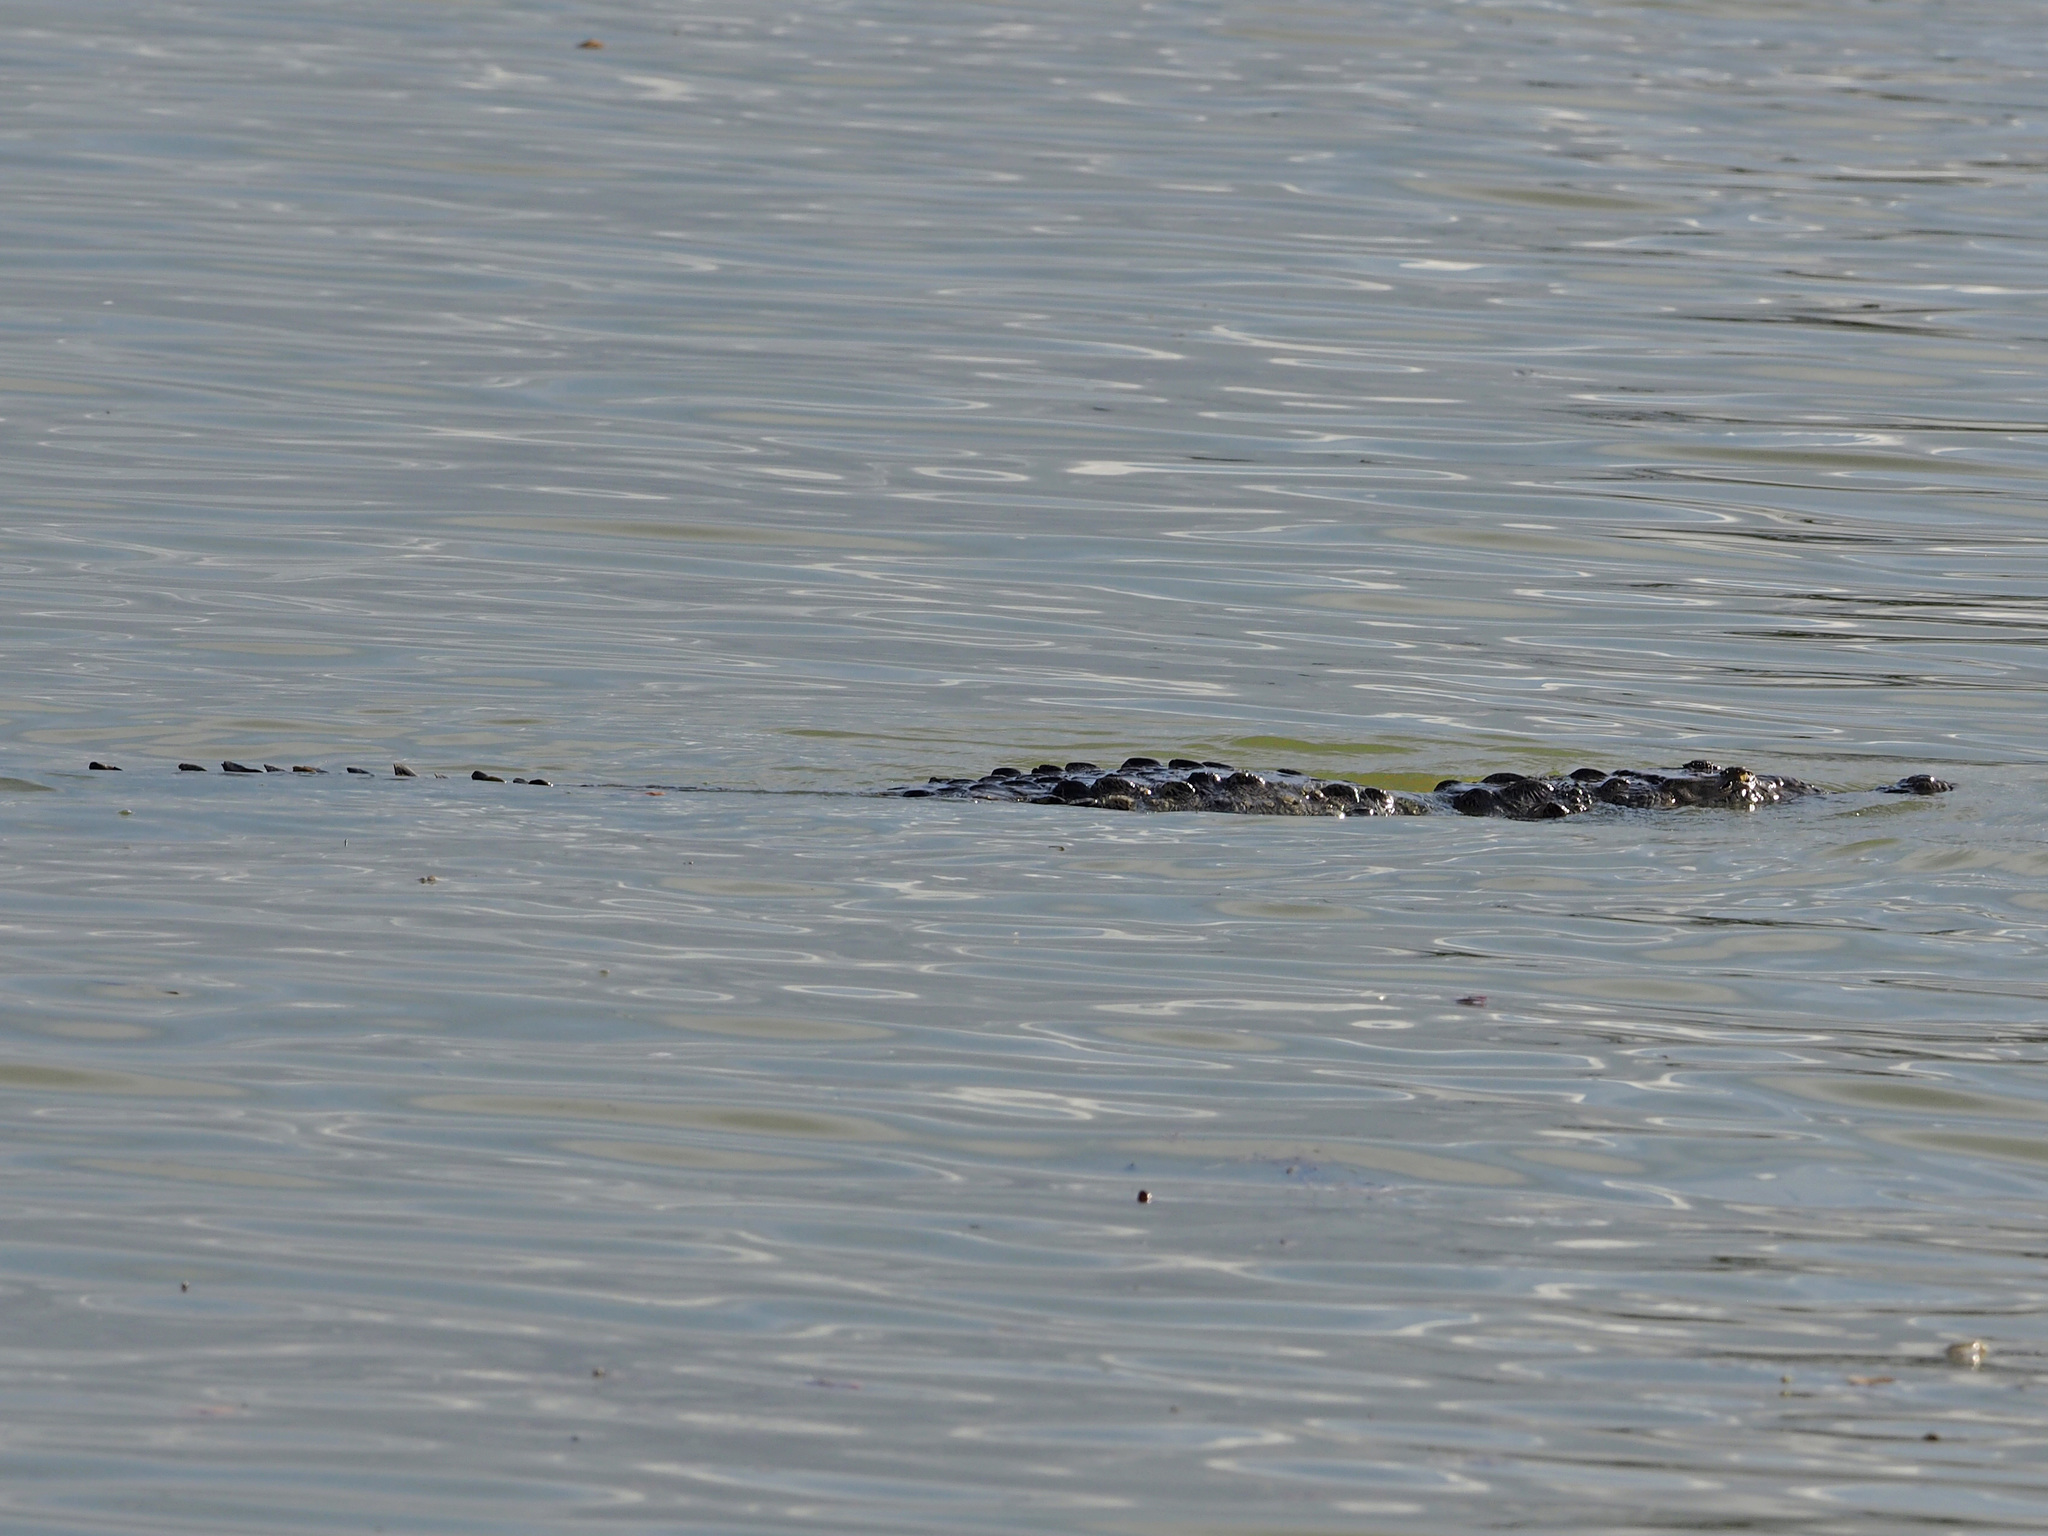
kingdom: Animalia
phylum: Chordata
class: Crocodylia
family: Crocodylidae
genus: Crocodylus
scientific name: Crocodylus acutus
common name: American crocodile
